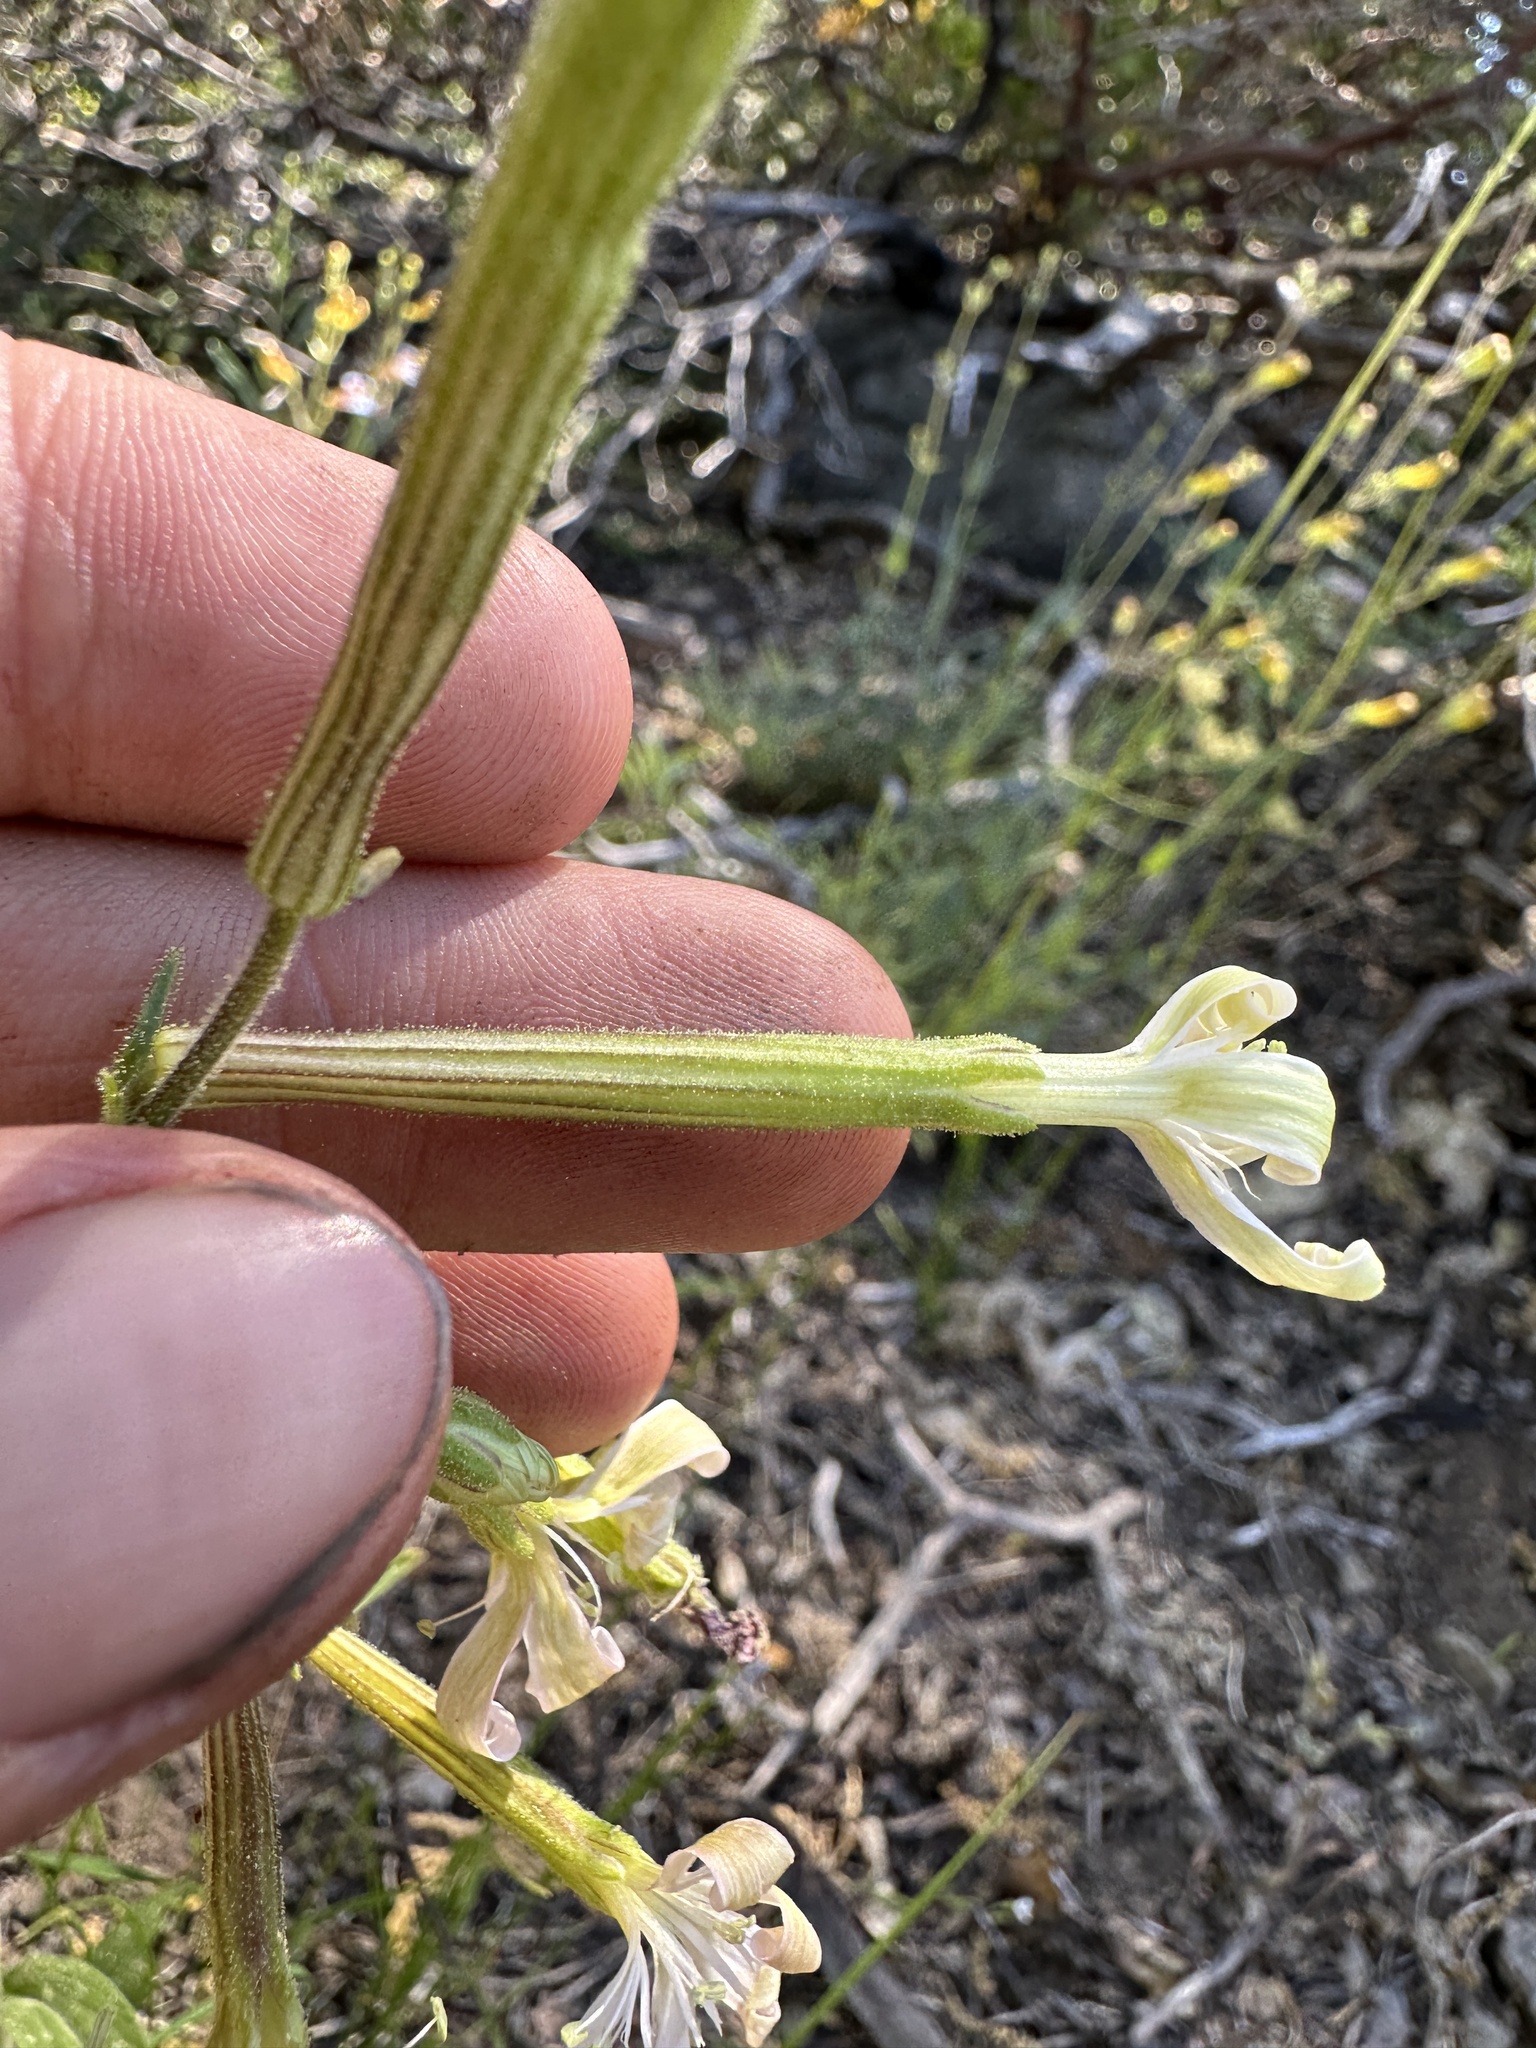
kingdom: Plantae
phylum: Tracheophyta
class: Magnoliopsida
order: Caryophyllales
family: Caryophyllaceae
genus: Silene
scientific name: Silene occidentalis
